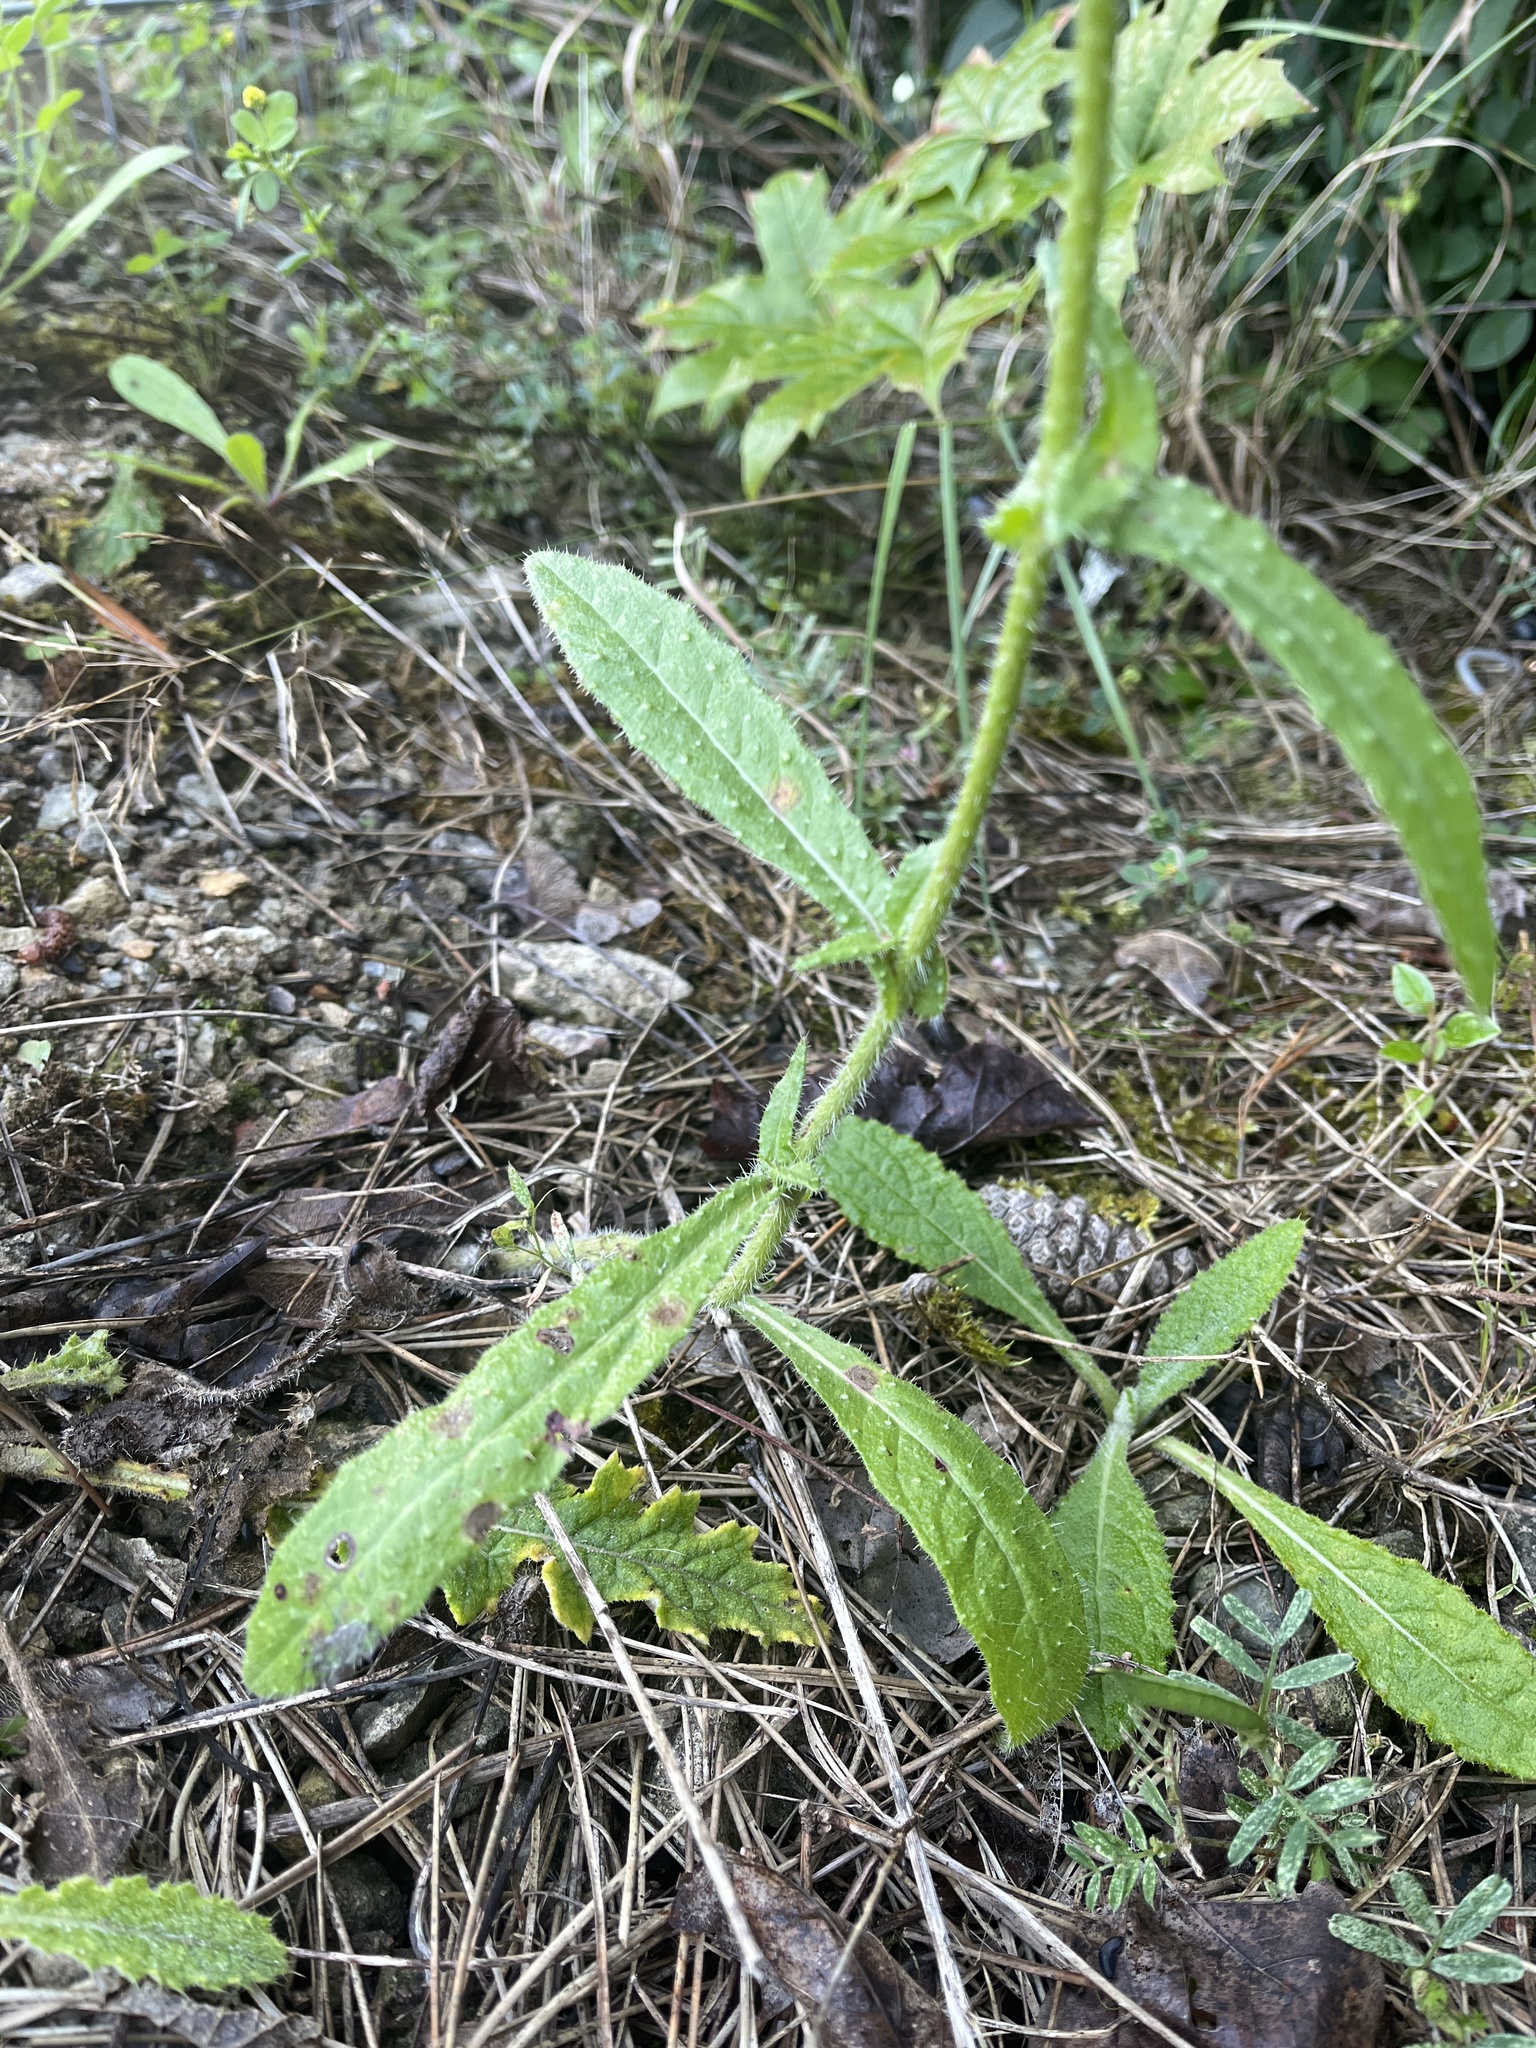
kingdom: Plantae
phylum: Tracheophyta
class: Magnoliopsida
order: Asterales
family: Asteraceae
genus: Helminthotheca
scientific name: Helminthotheca echioides
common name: Ox-tongue
